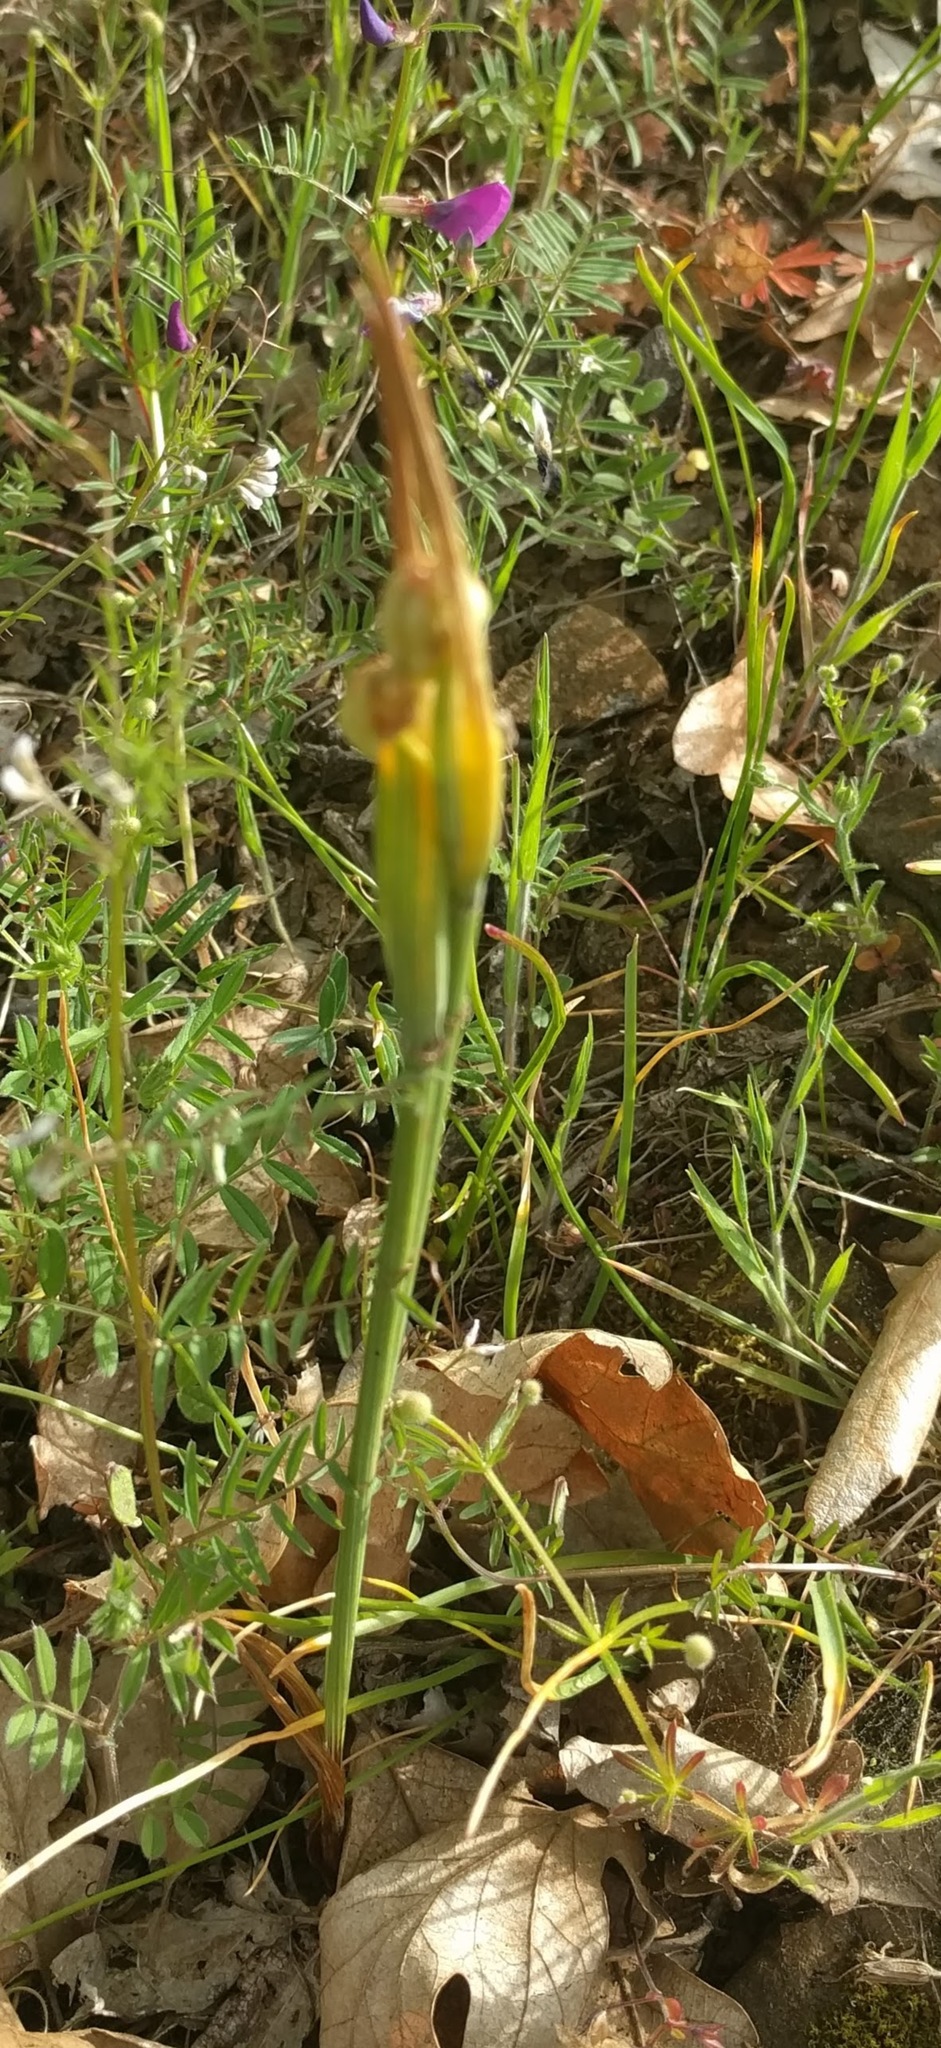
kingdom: Plantae
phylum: Tracheophyta
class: Liliopsida
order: Asparagales
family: Iridaceae
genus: Olsynium
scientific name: Olsynium douglasii
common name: Douglas' grasswidow
